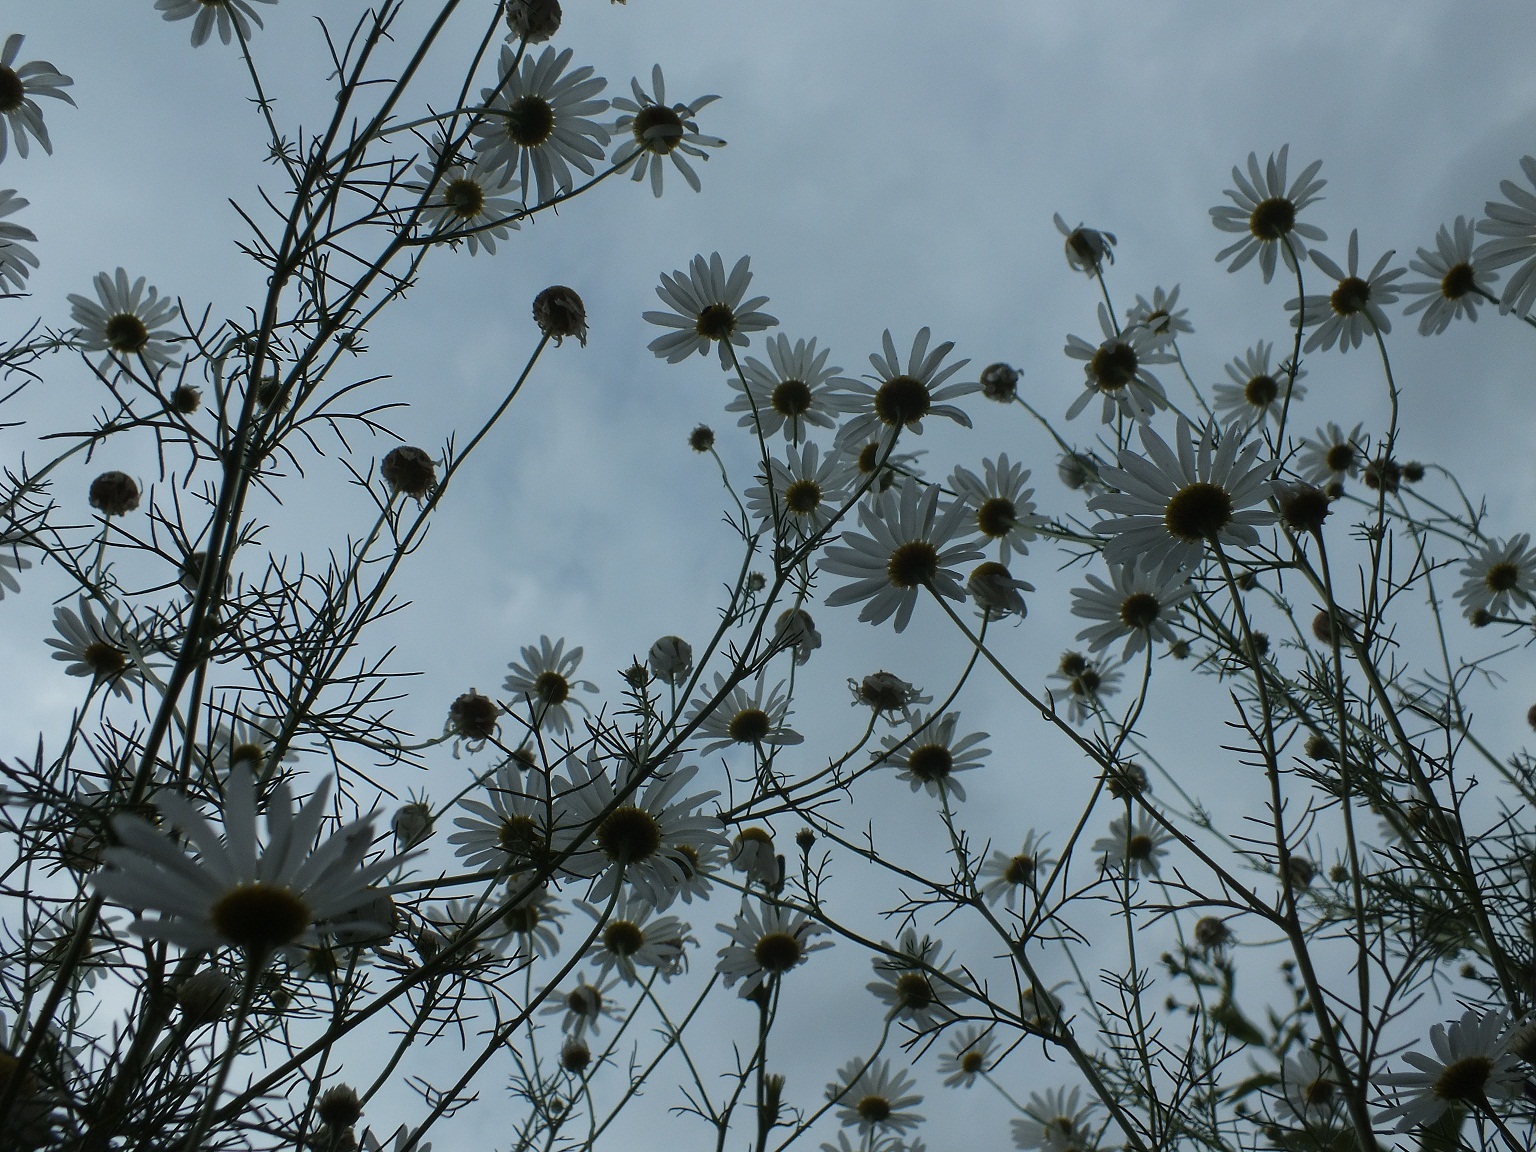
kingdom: Plantae
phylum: Tracheophyta
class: Magnoliopsida
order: Asterales
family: Asteraceae
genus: Tripleurospermum
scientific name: Tripleurospermum inodorum
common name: Scentless mayweed
